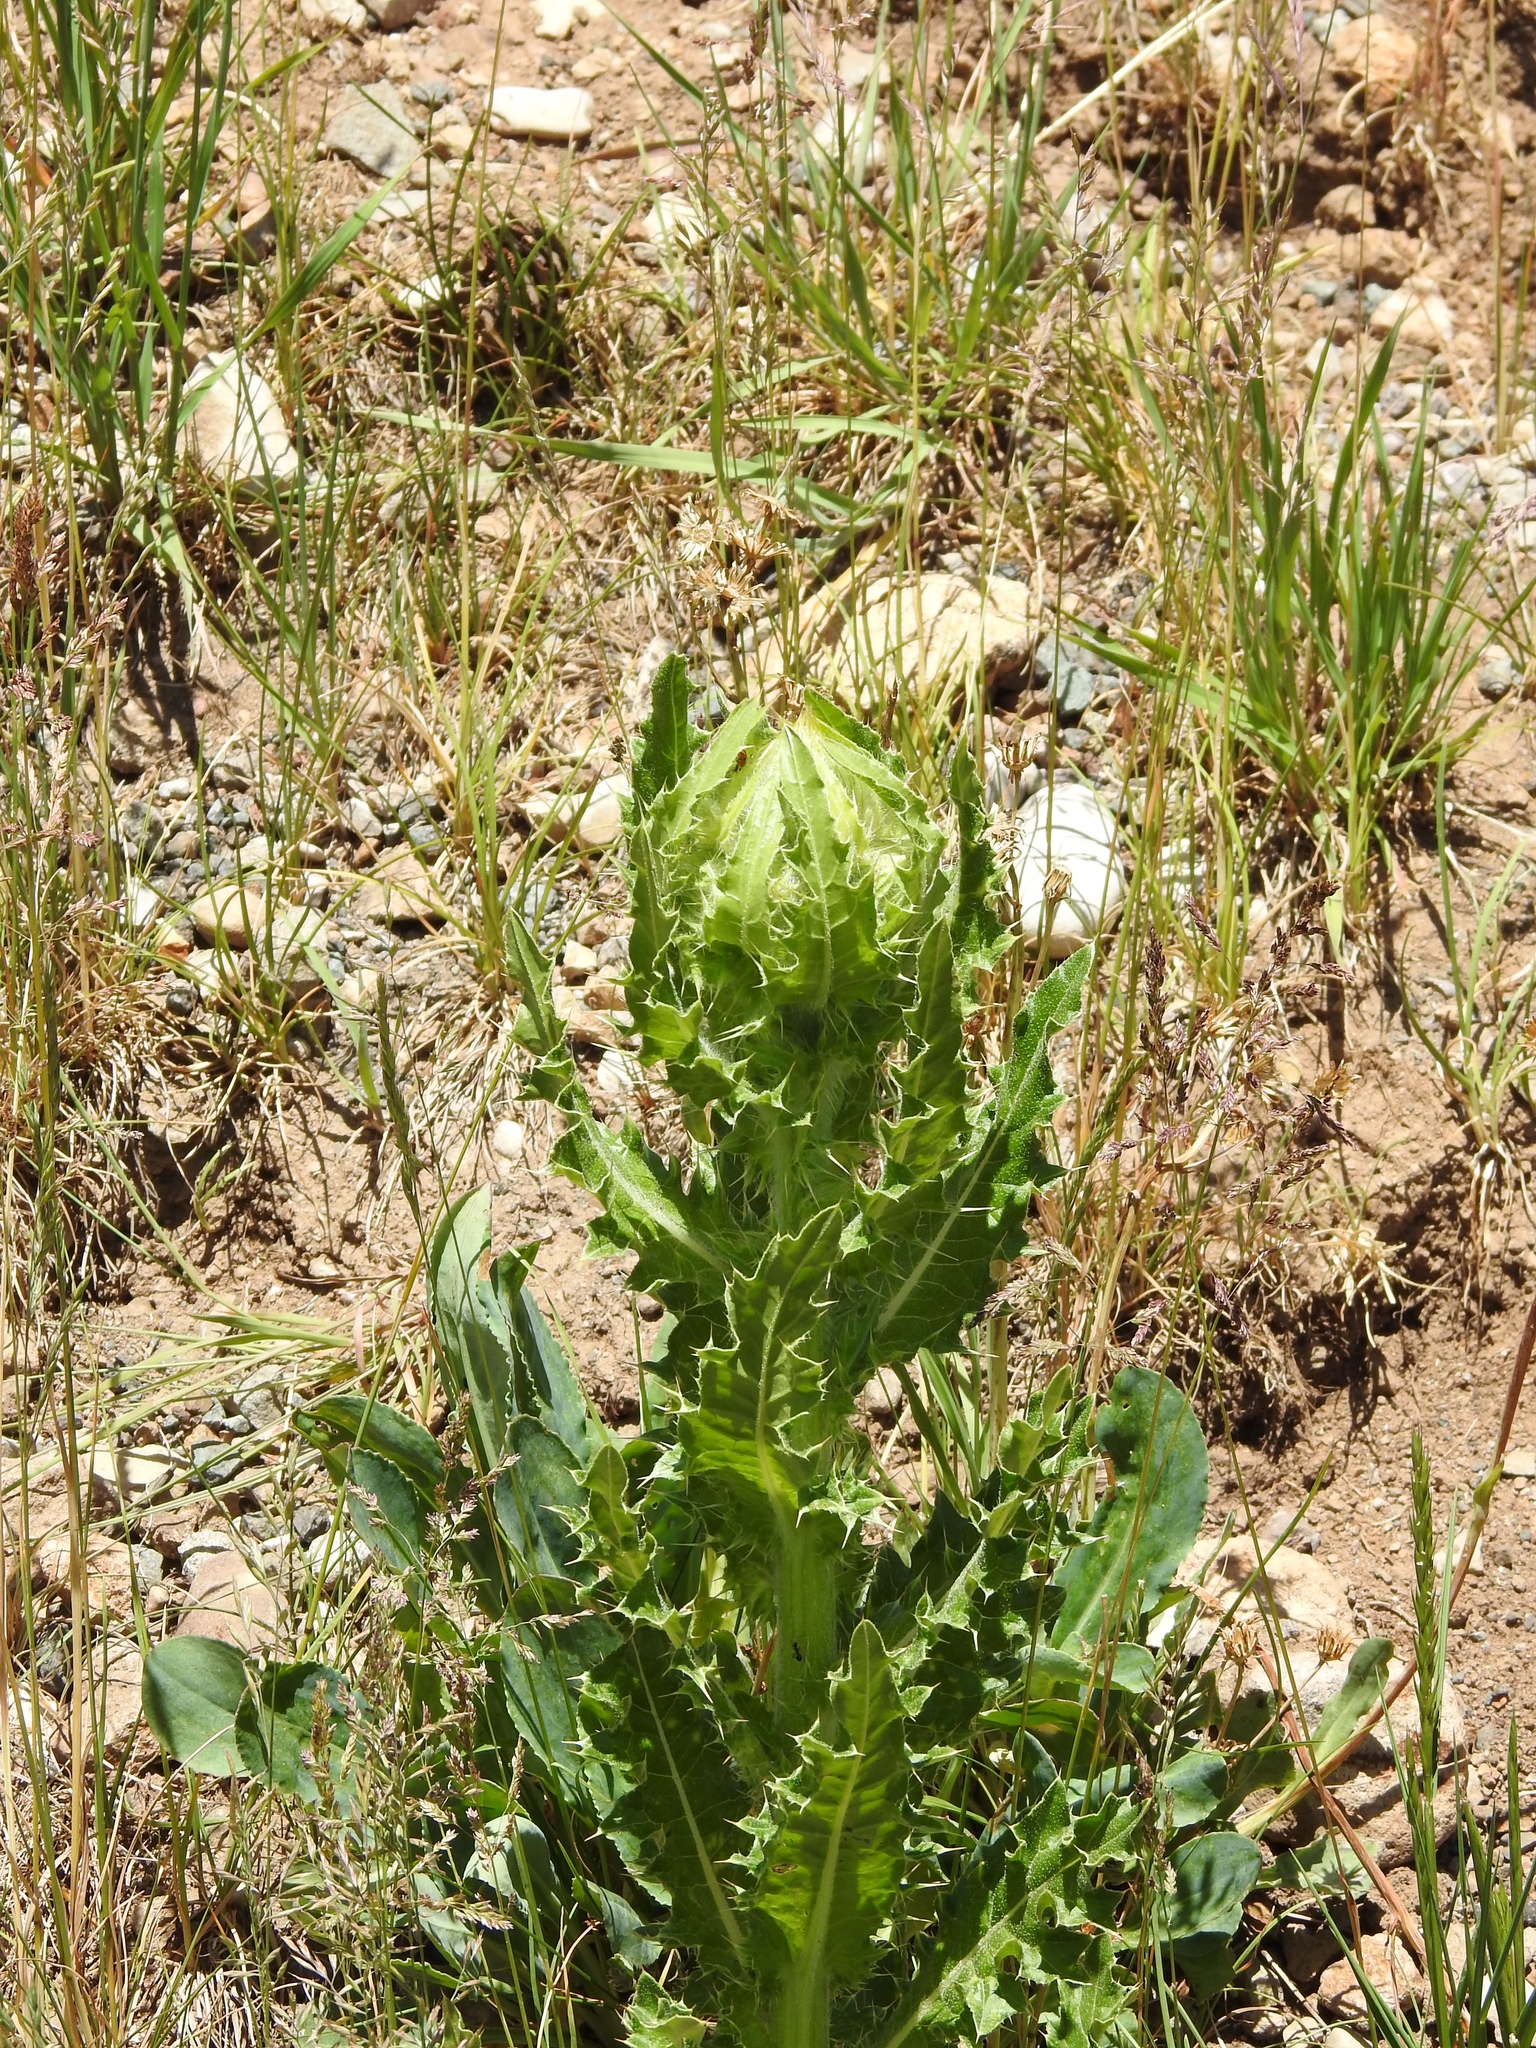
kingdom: Plantae
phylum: Tracheophyta
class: Magnoliopsida
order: Asterales
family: Asteraceae
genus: Cirsium
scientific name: Cirsium parryi
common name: Parry's thistle
